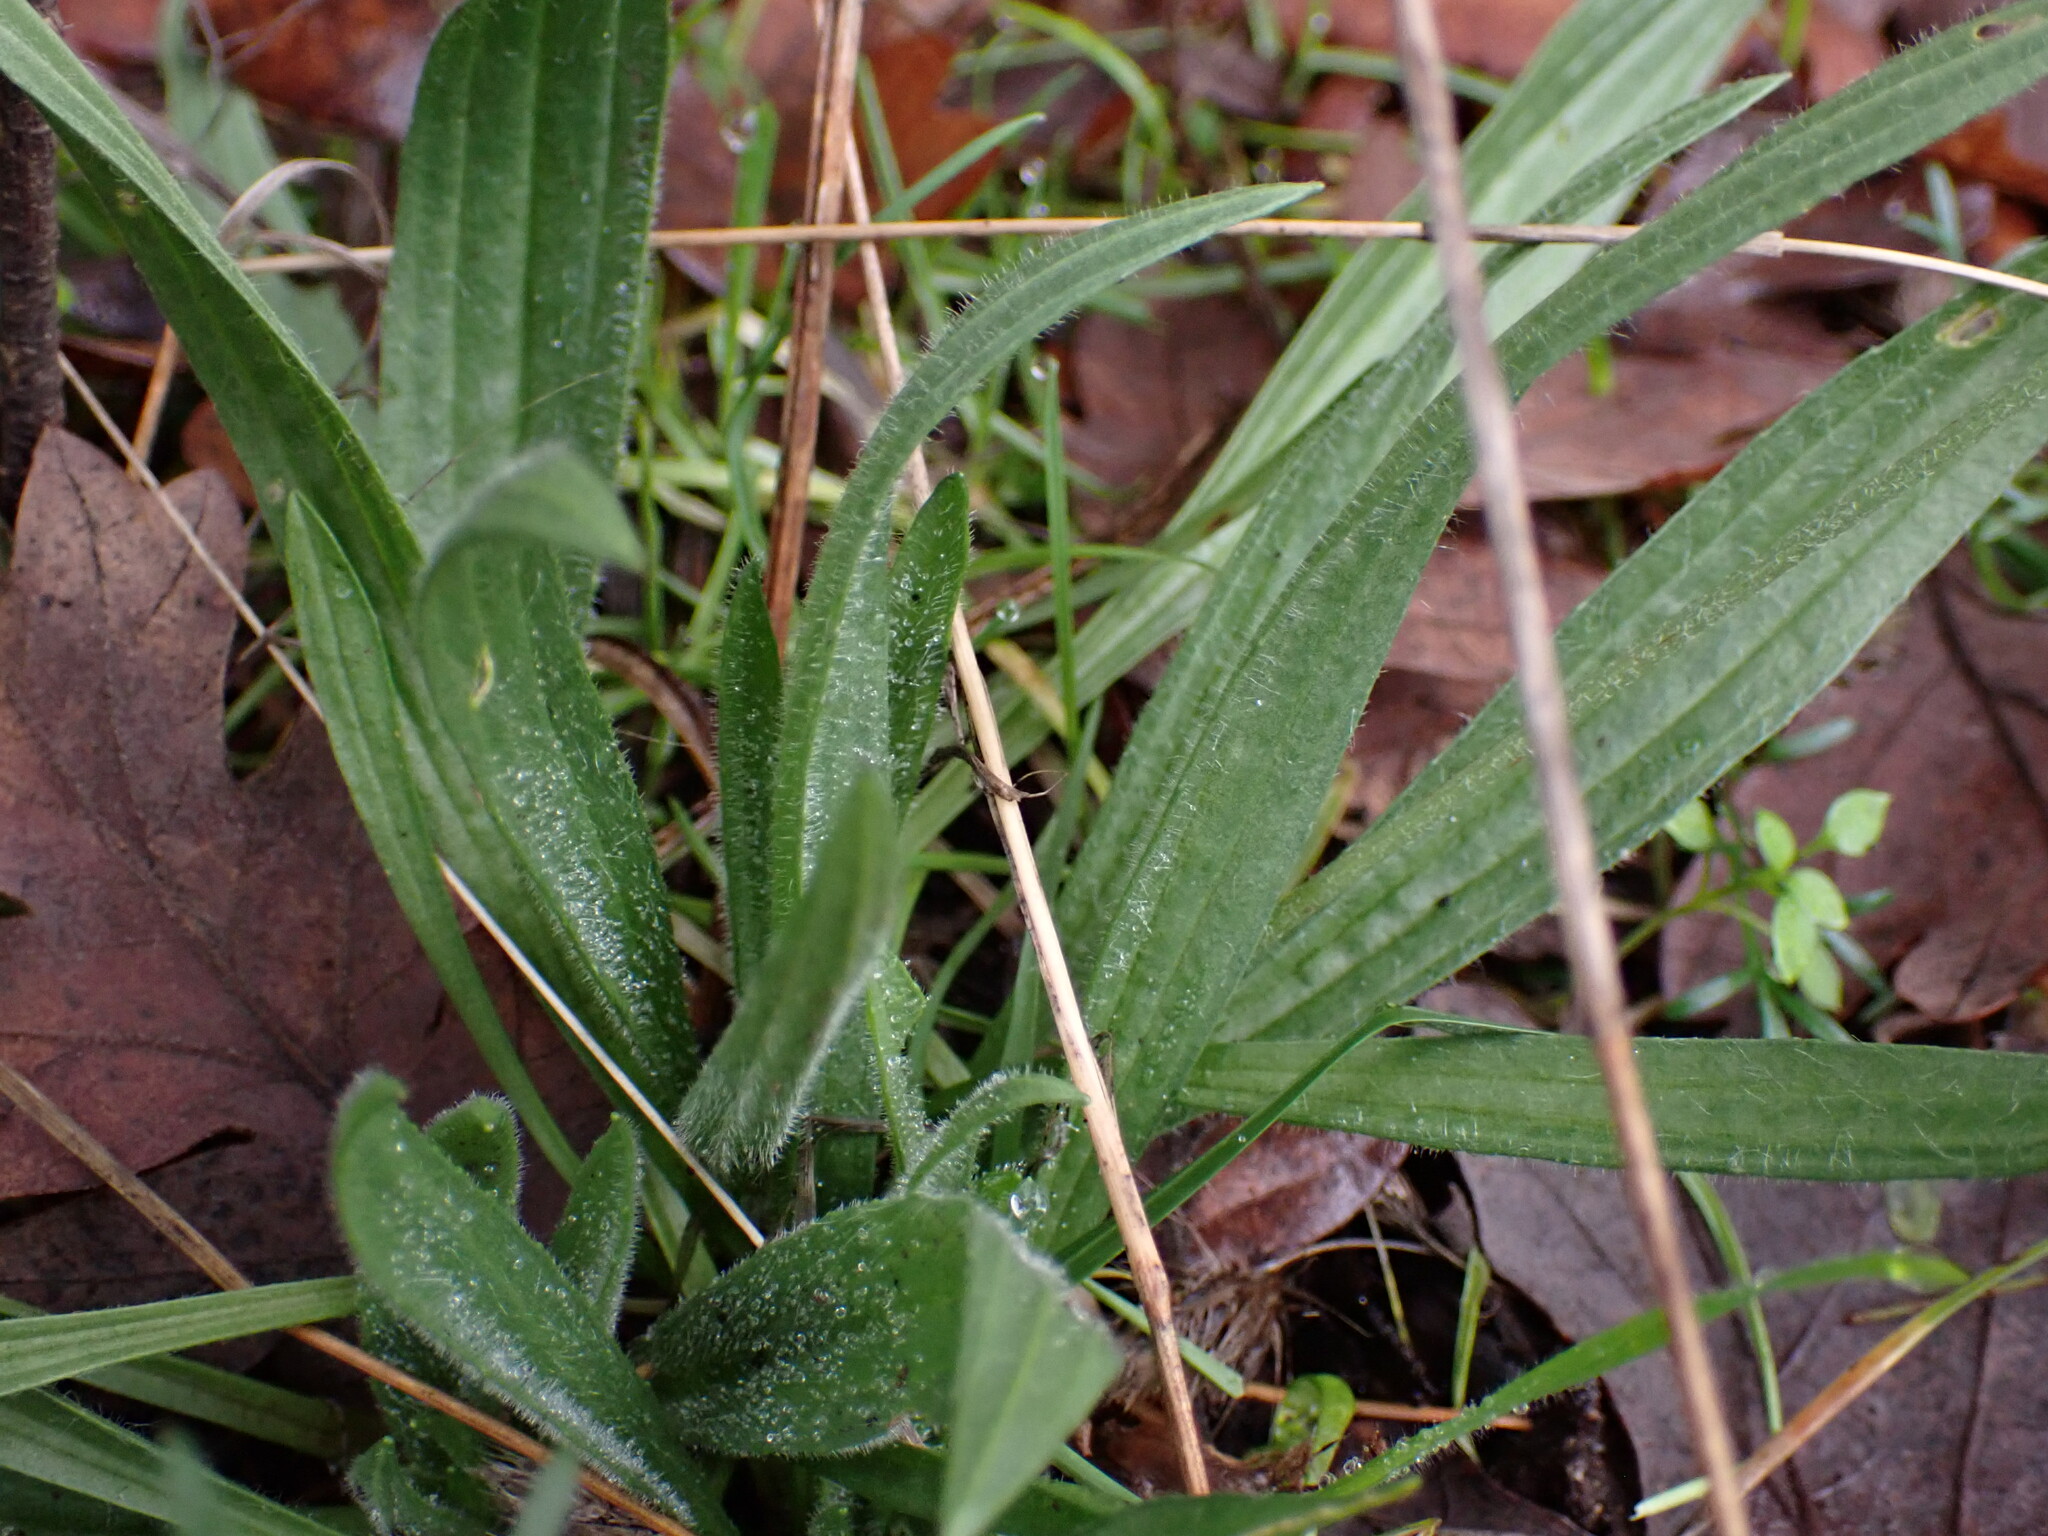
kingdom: Plantae
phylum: Tracheophyta
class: Magnoliopsida
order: Lamiales
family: Plantaginaceae
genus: Plantago
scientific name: Plantago lanceolata
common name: Ribwort plantain
